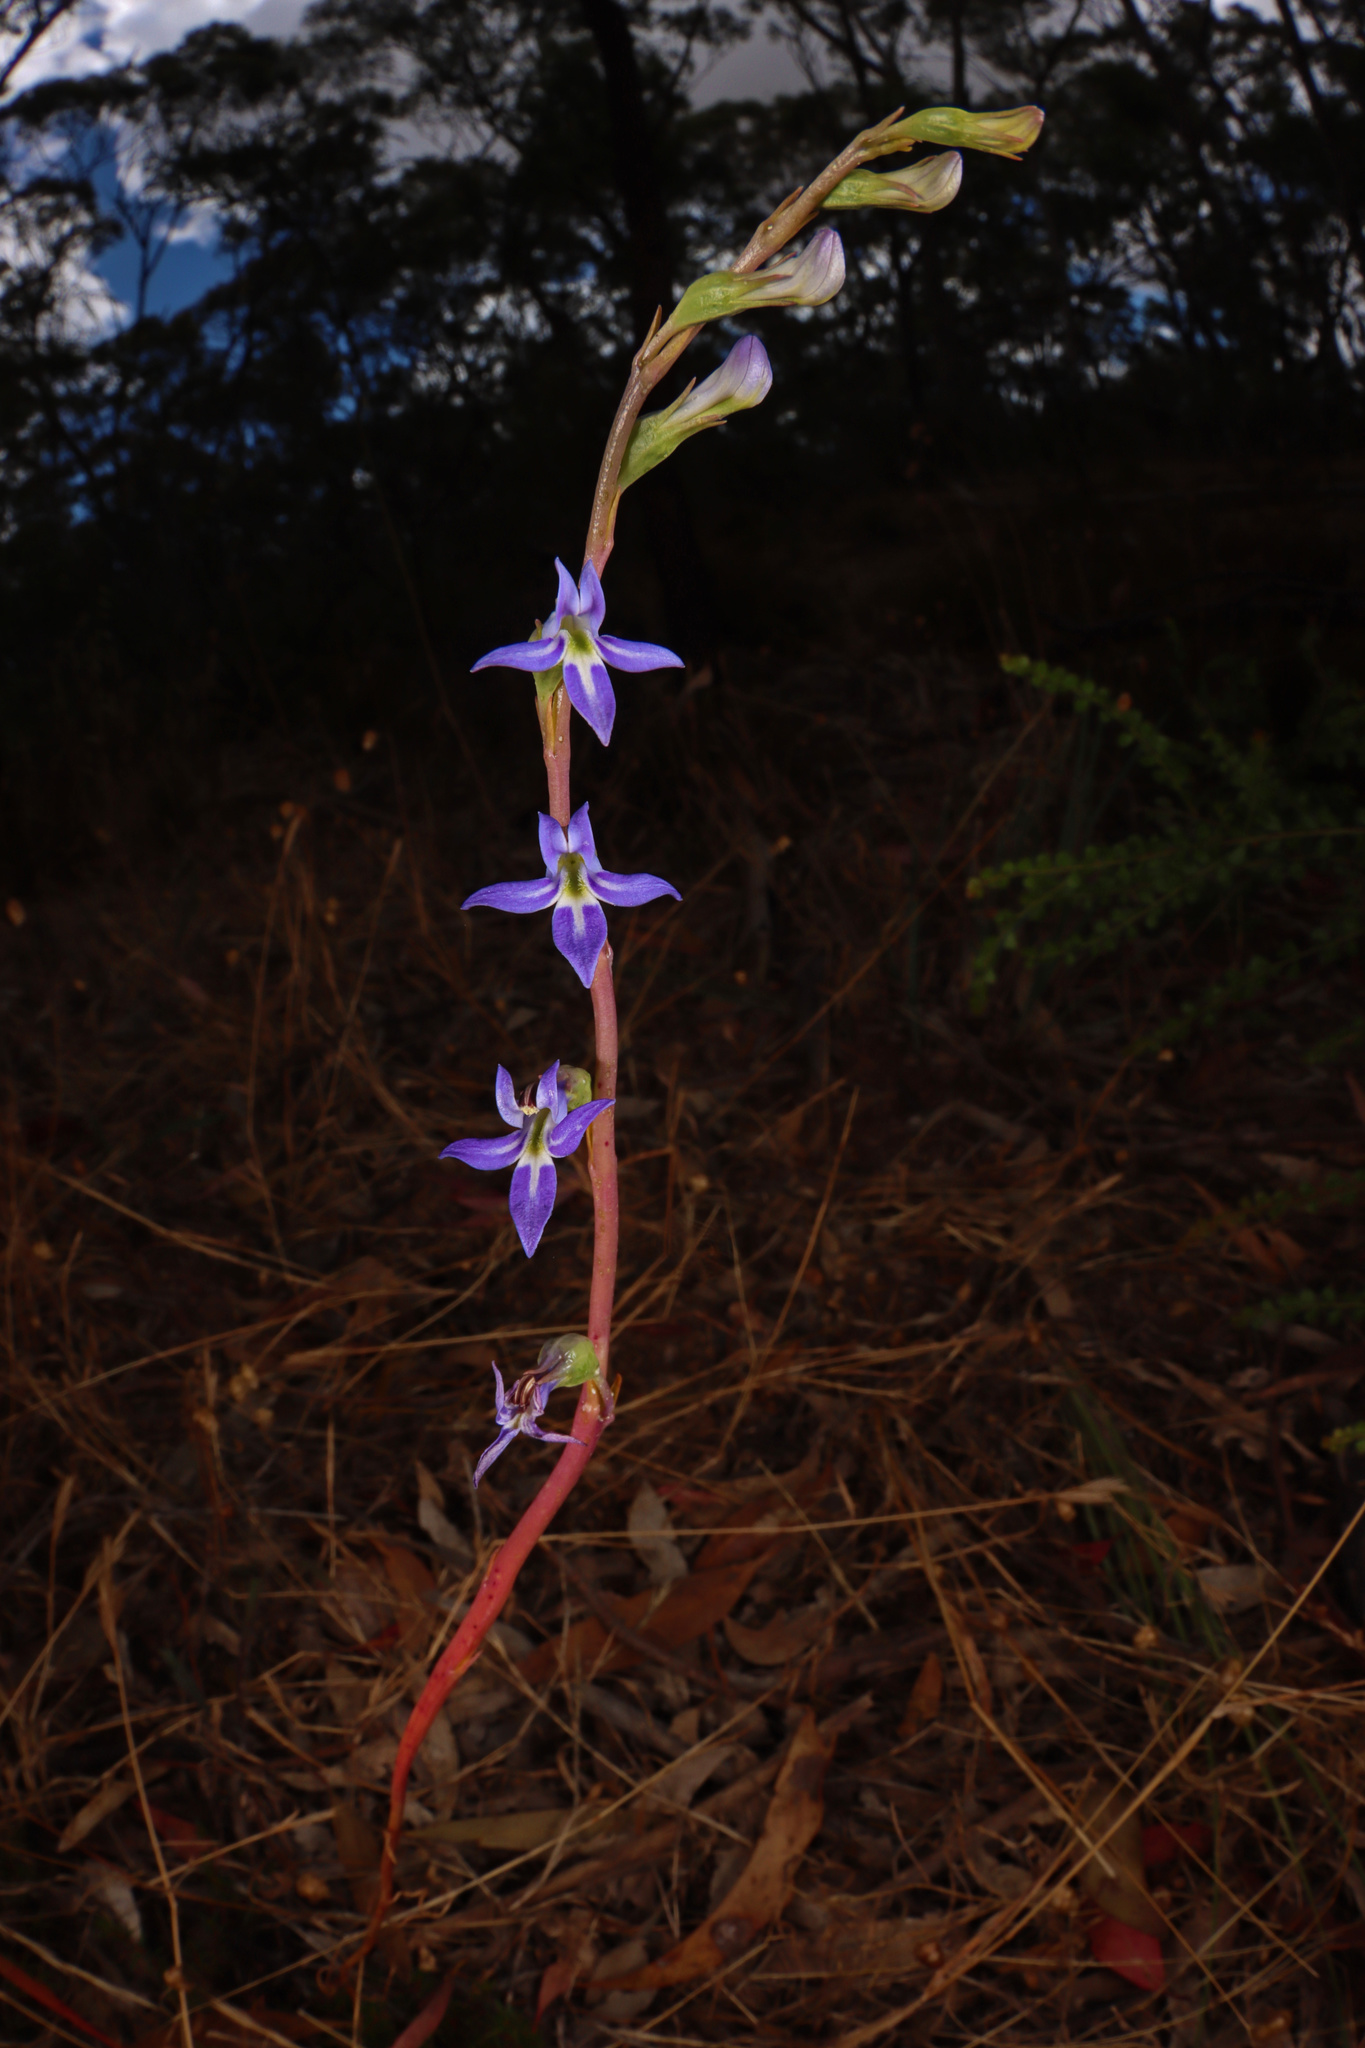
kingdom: Plantae
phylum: Tracheophyta
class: Magnoliopsida
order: Asterales
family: Campanulaceae
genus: Lobelia
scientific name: Lobelia gibbosa
